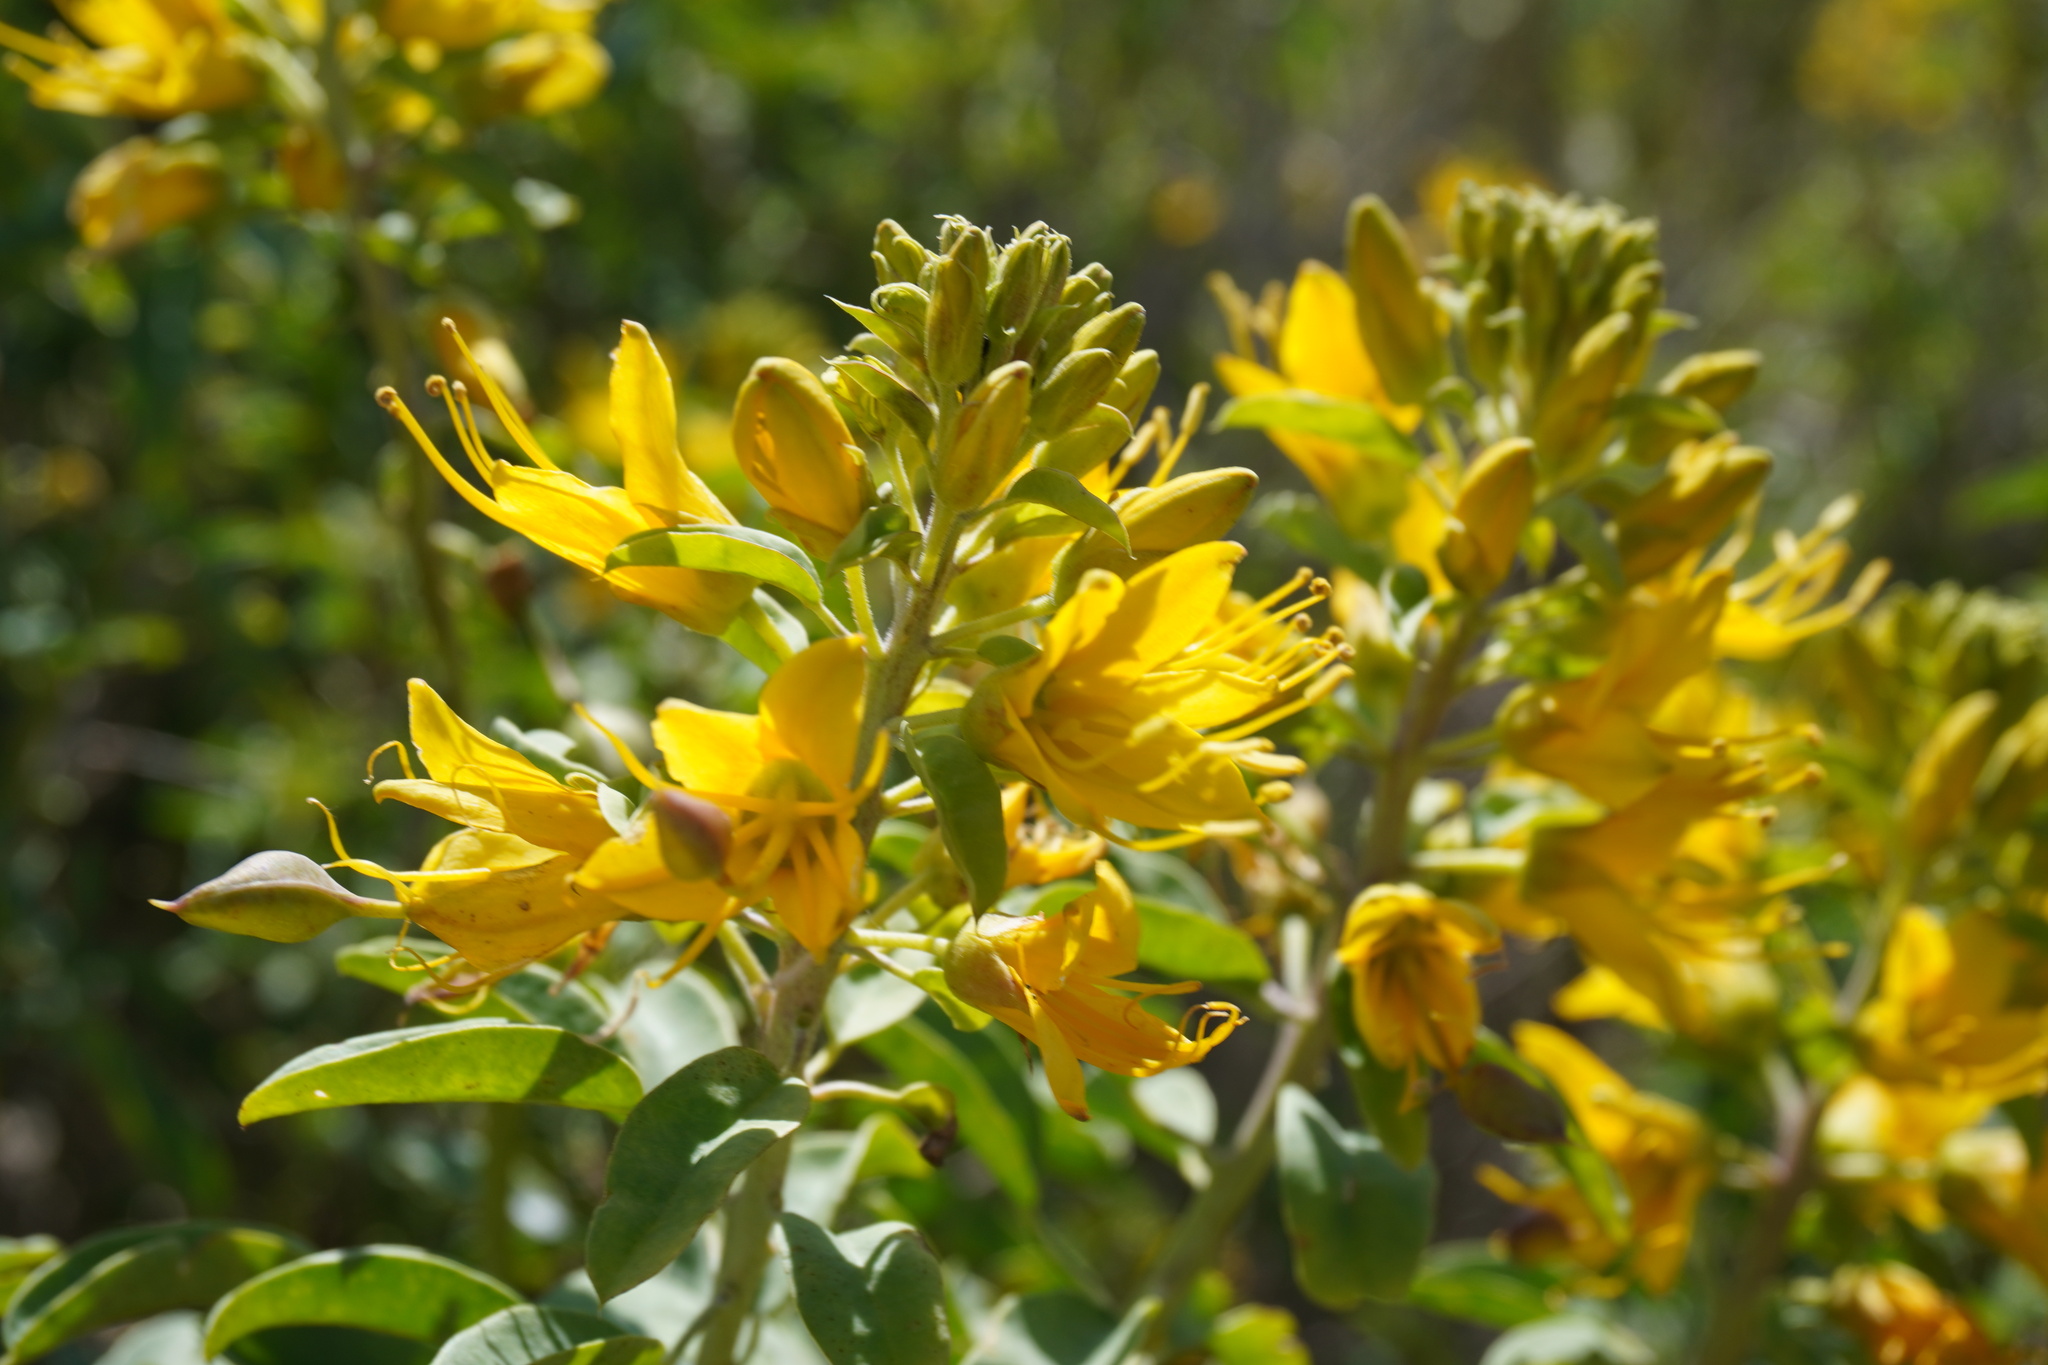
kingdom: Plantae
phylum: Tracheophyta
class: Magnoliopsida
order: Brassicales
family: Cleomaceae
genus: Cleomella
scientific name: Cleomella arborea
